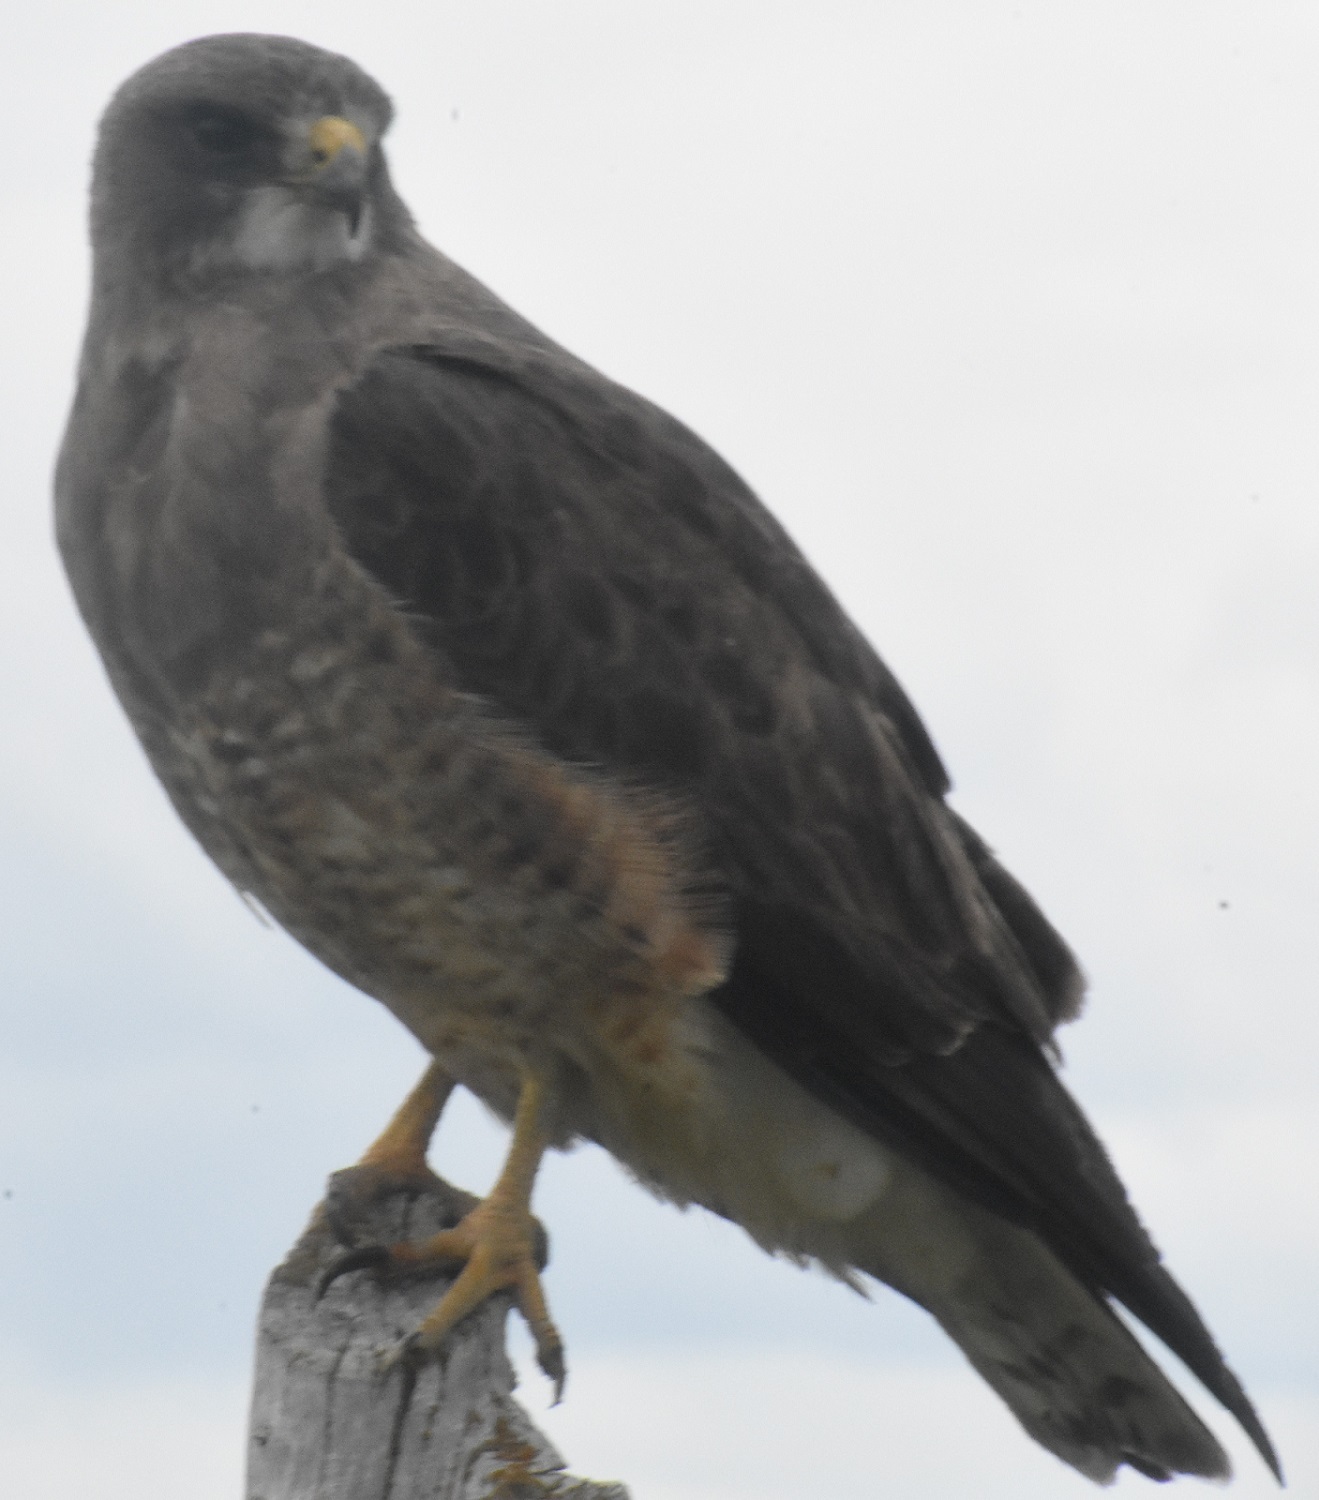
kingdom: Animalia
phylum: Chordata
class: Aves
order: Accipitriformes
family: Accipitridae
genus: Buteo
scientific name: Buteo swainsoni
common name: Swainson's hawk
